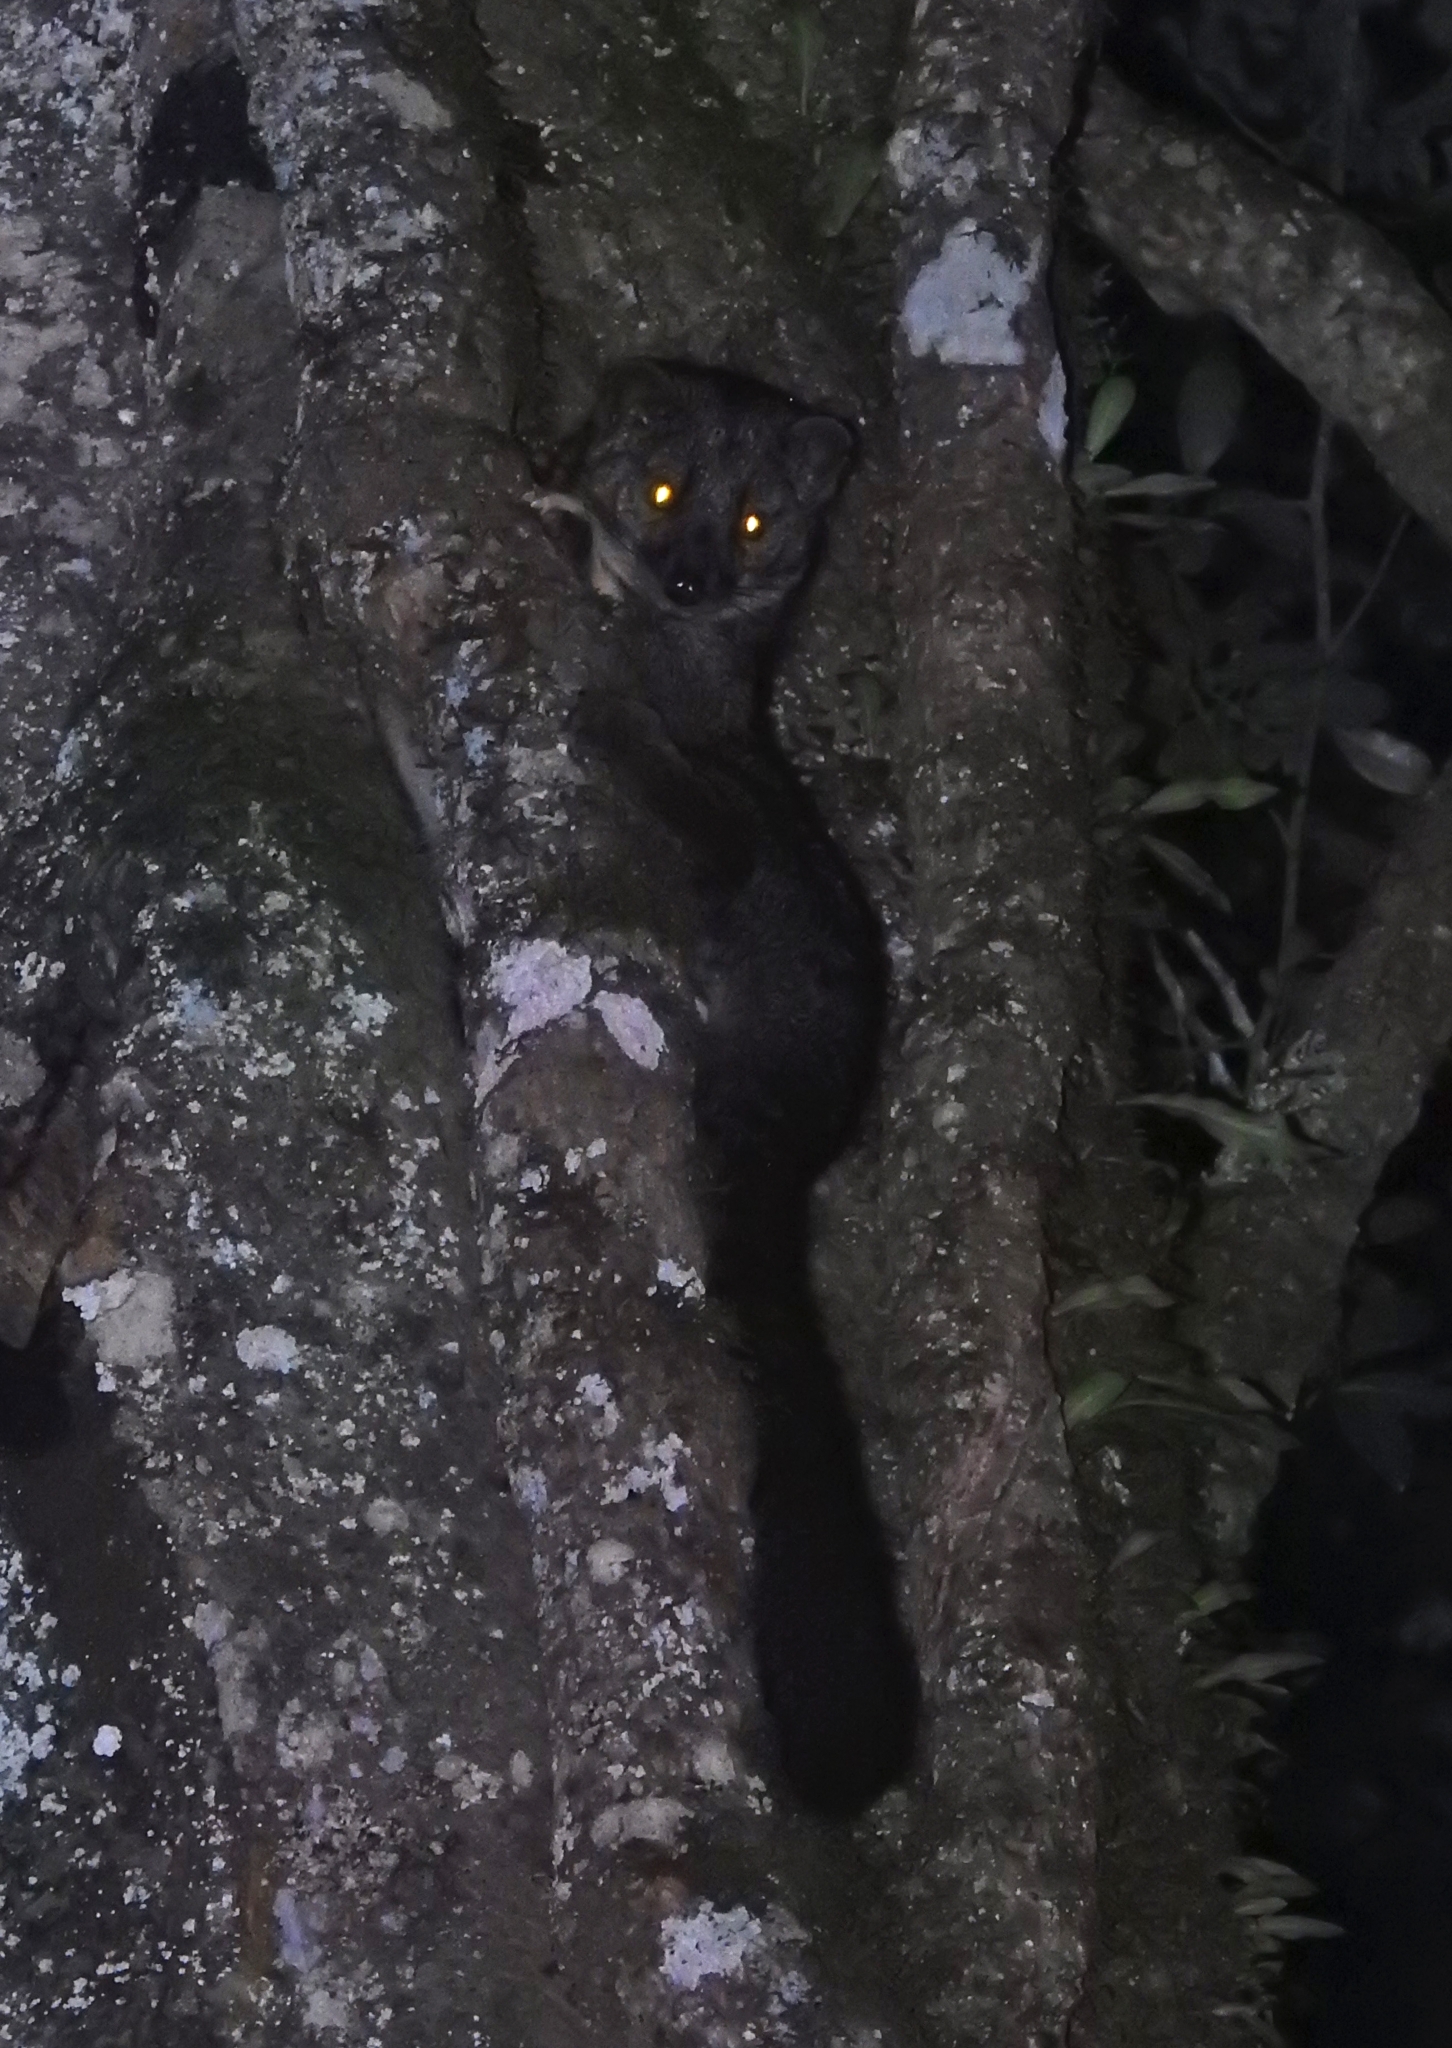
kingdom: Animalia
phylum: Chordata
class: Mammalia
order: Carnivora
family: Nandiniidae
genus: Nandinia
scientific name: Nandinia binotata
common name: African palm civet
